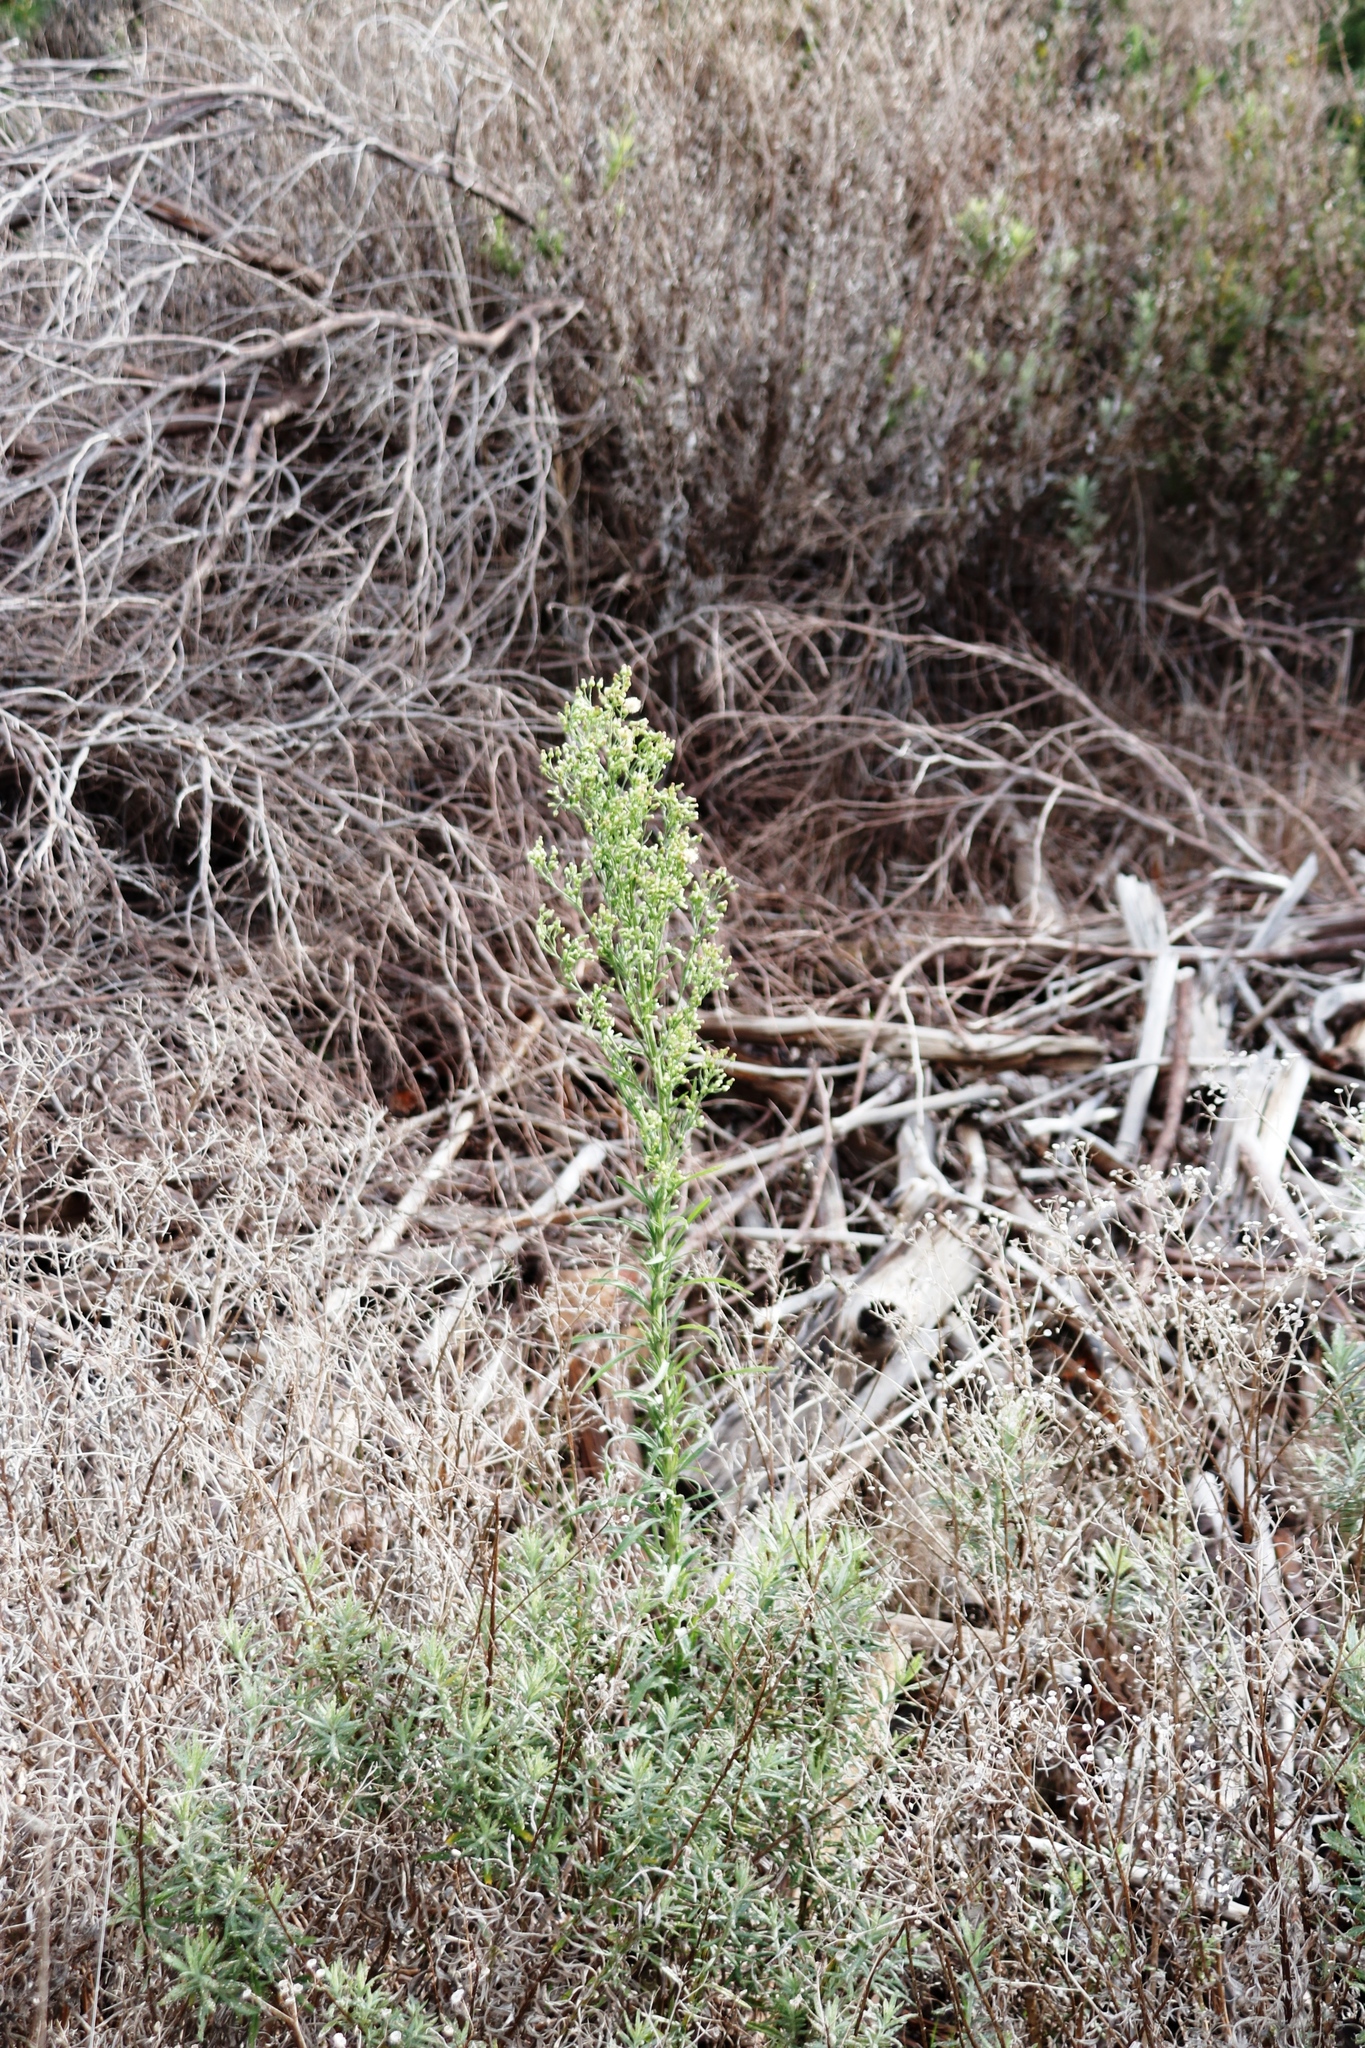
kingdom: Plantae
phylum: Tracheophyta
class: Magnoliopsida
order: Asterales
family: Asteraceae
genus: Erigeron
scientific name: Erigeron sumatrensis
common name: Daisy
